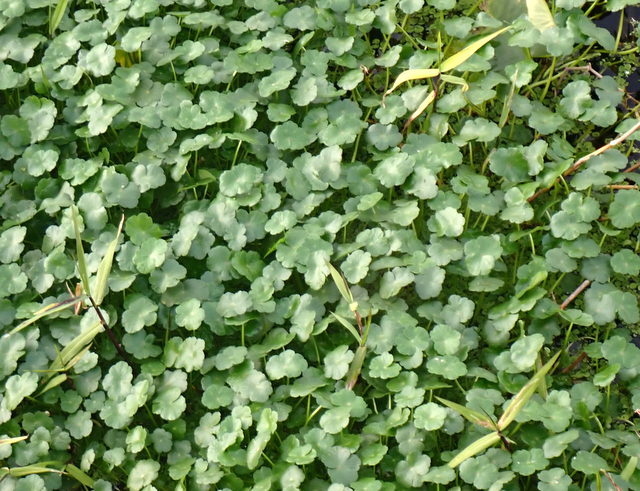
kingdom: Plantae
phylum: Tracheophyta
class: Magnoliopsida
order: Apiales
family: Araliaceae
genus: Hydrocotyle
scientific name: Hydrocotyle ranunculoides
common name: Floating pennywort
